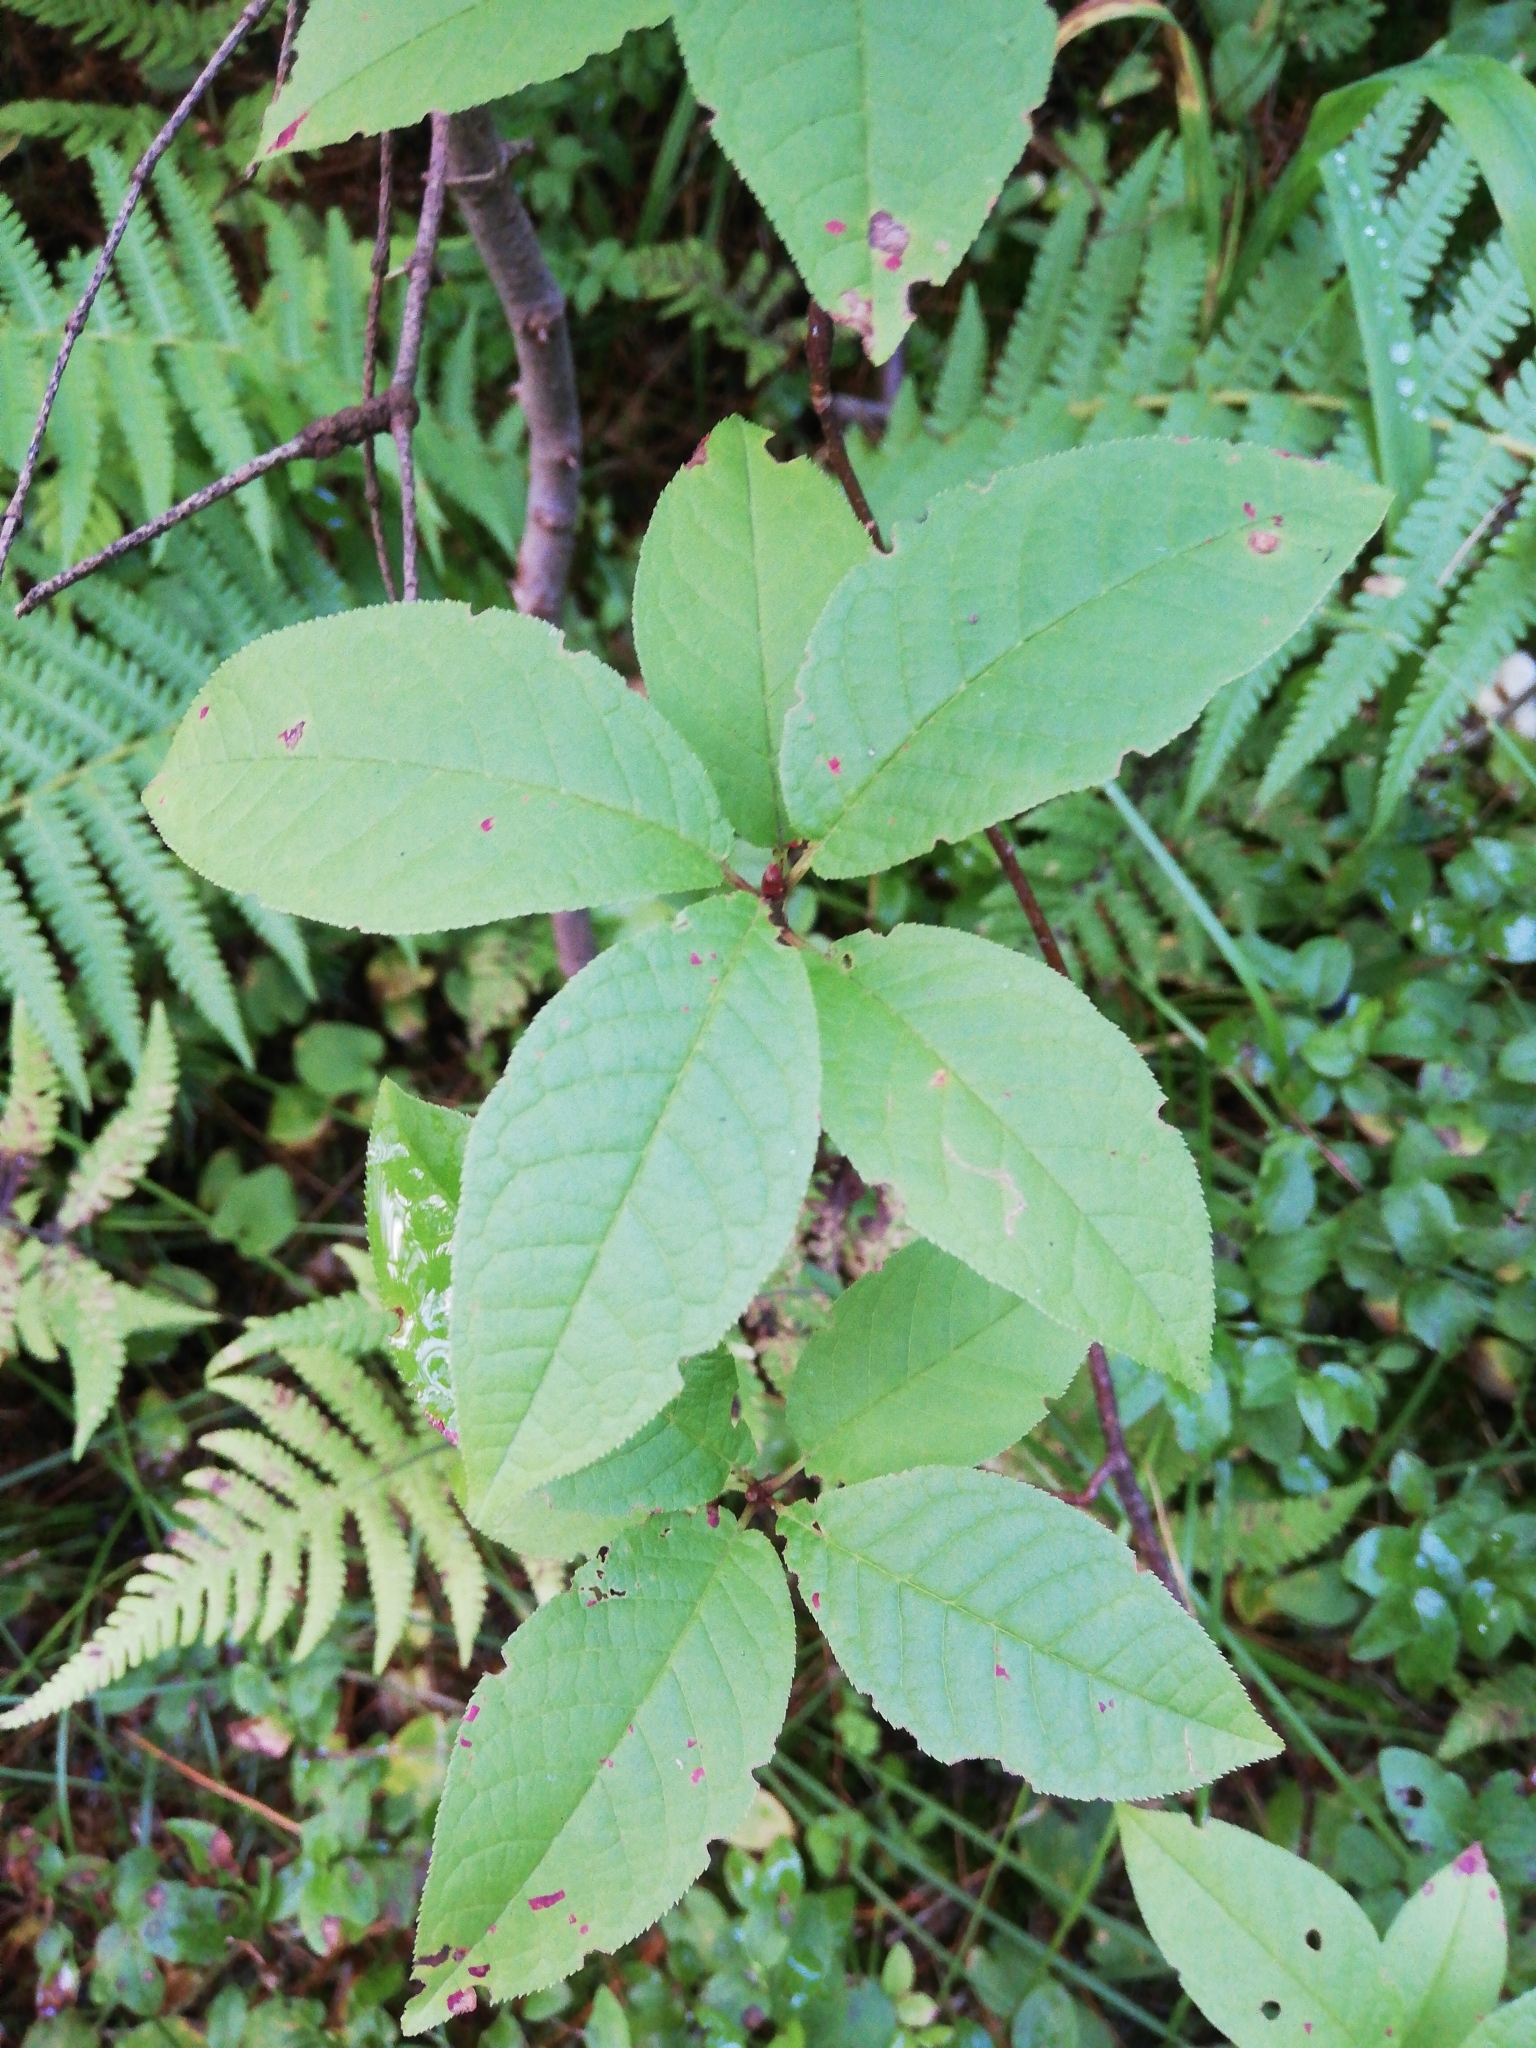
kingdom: Plantae
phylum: Tracheophyta
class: Magnoliopsida
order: Rosales
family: Rosaceae
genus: Prunus
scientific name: Prunus padus
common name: Bird cherry
